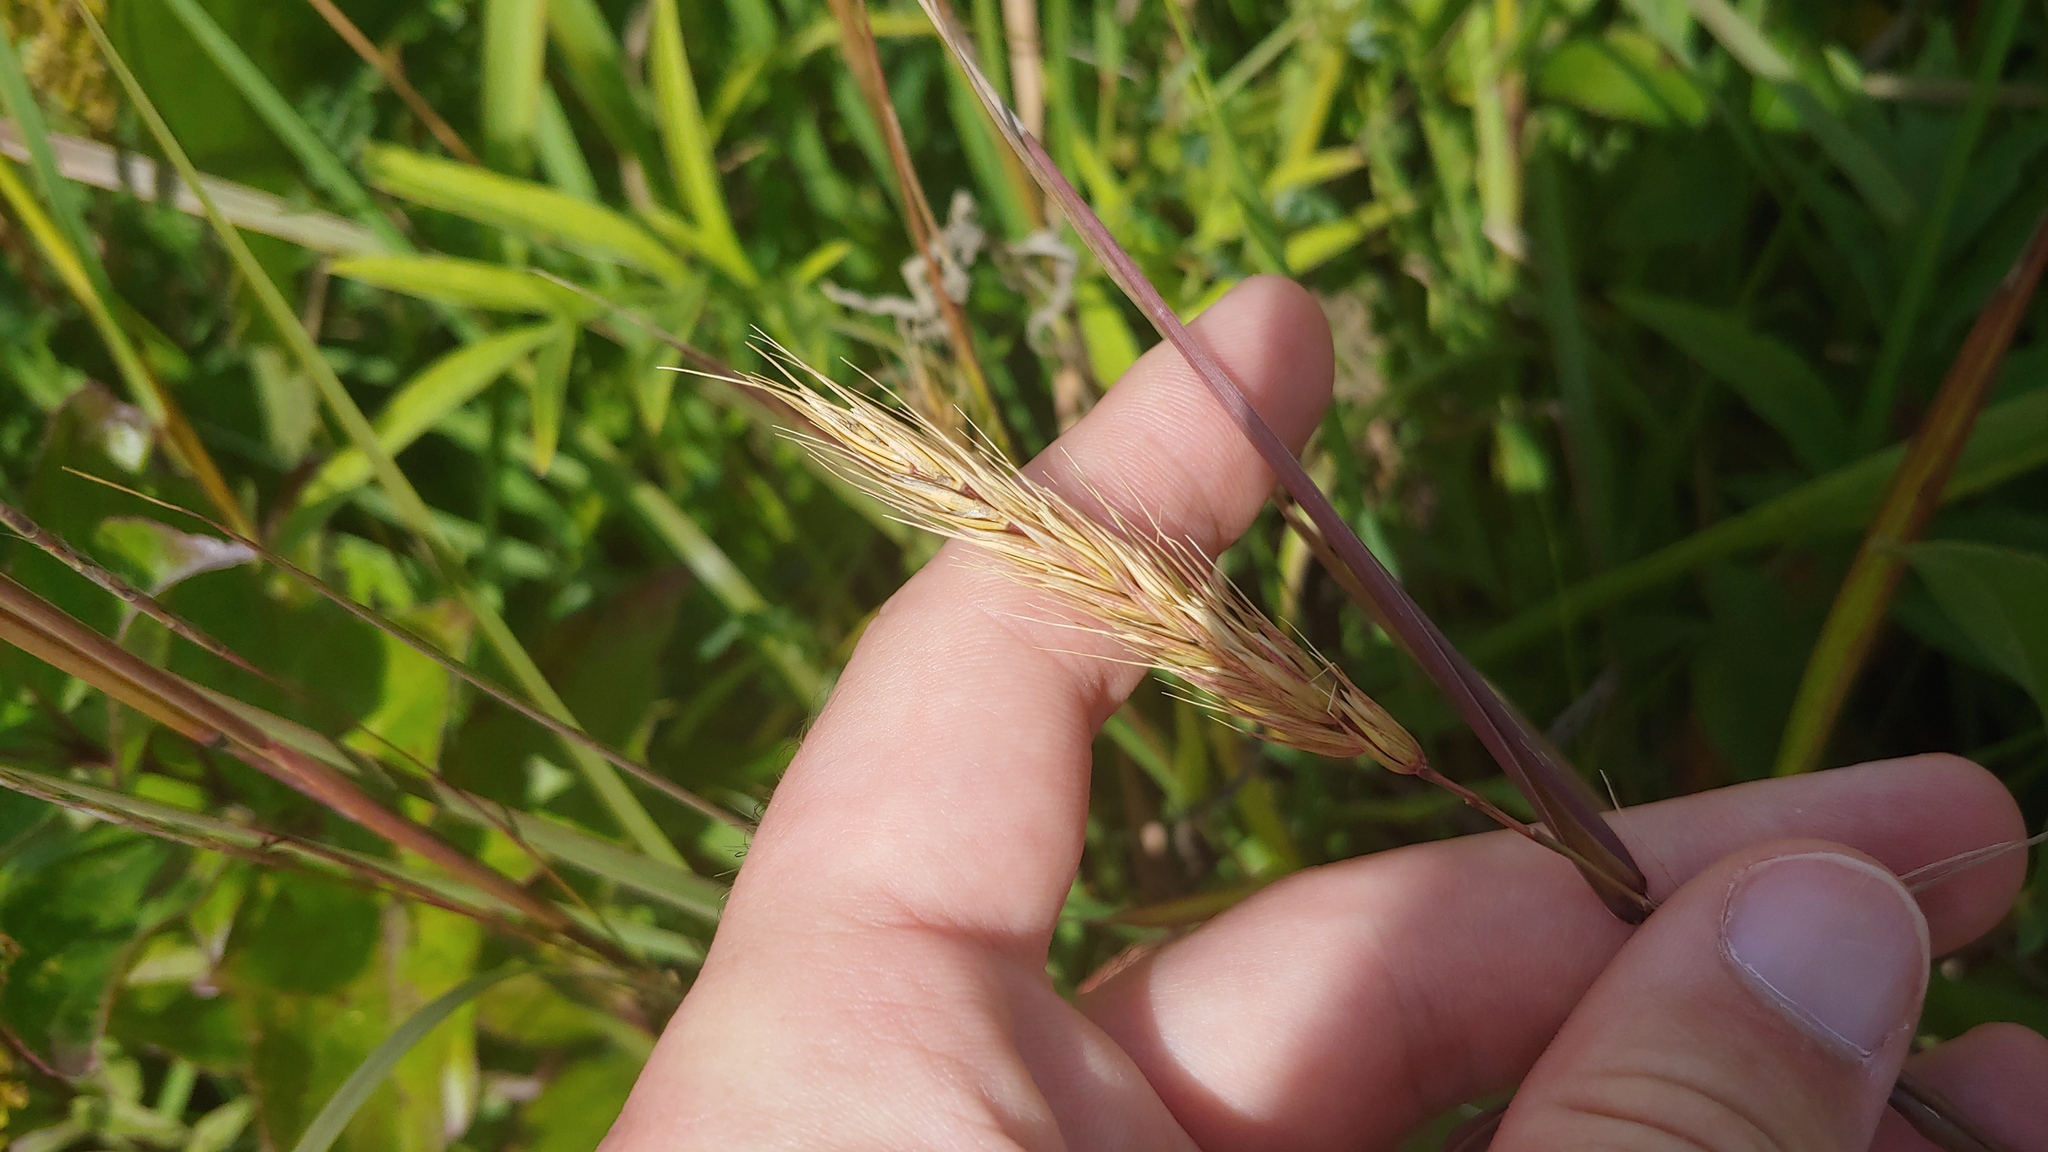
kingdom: Plantae
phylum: Tracheophyta
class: Liliopsida
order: Poales
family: Poaceae
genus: Elymus
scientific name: Elymus virginicus
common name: Common eastern wildrye
